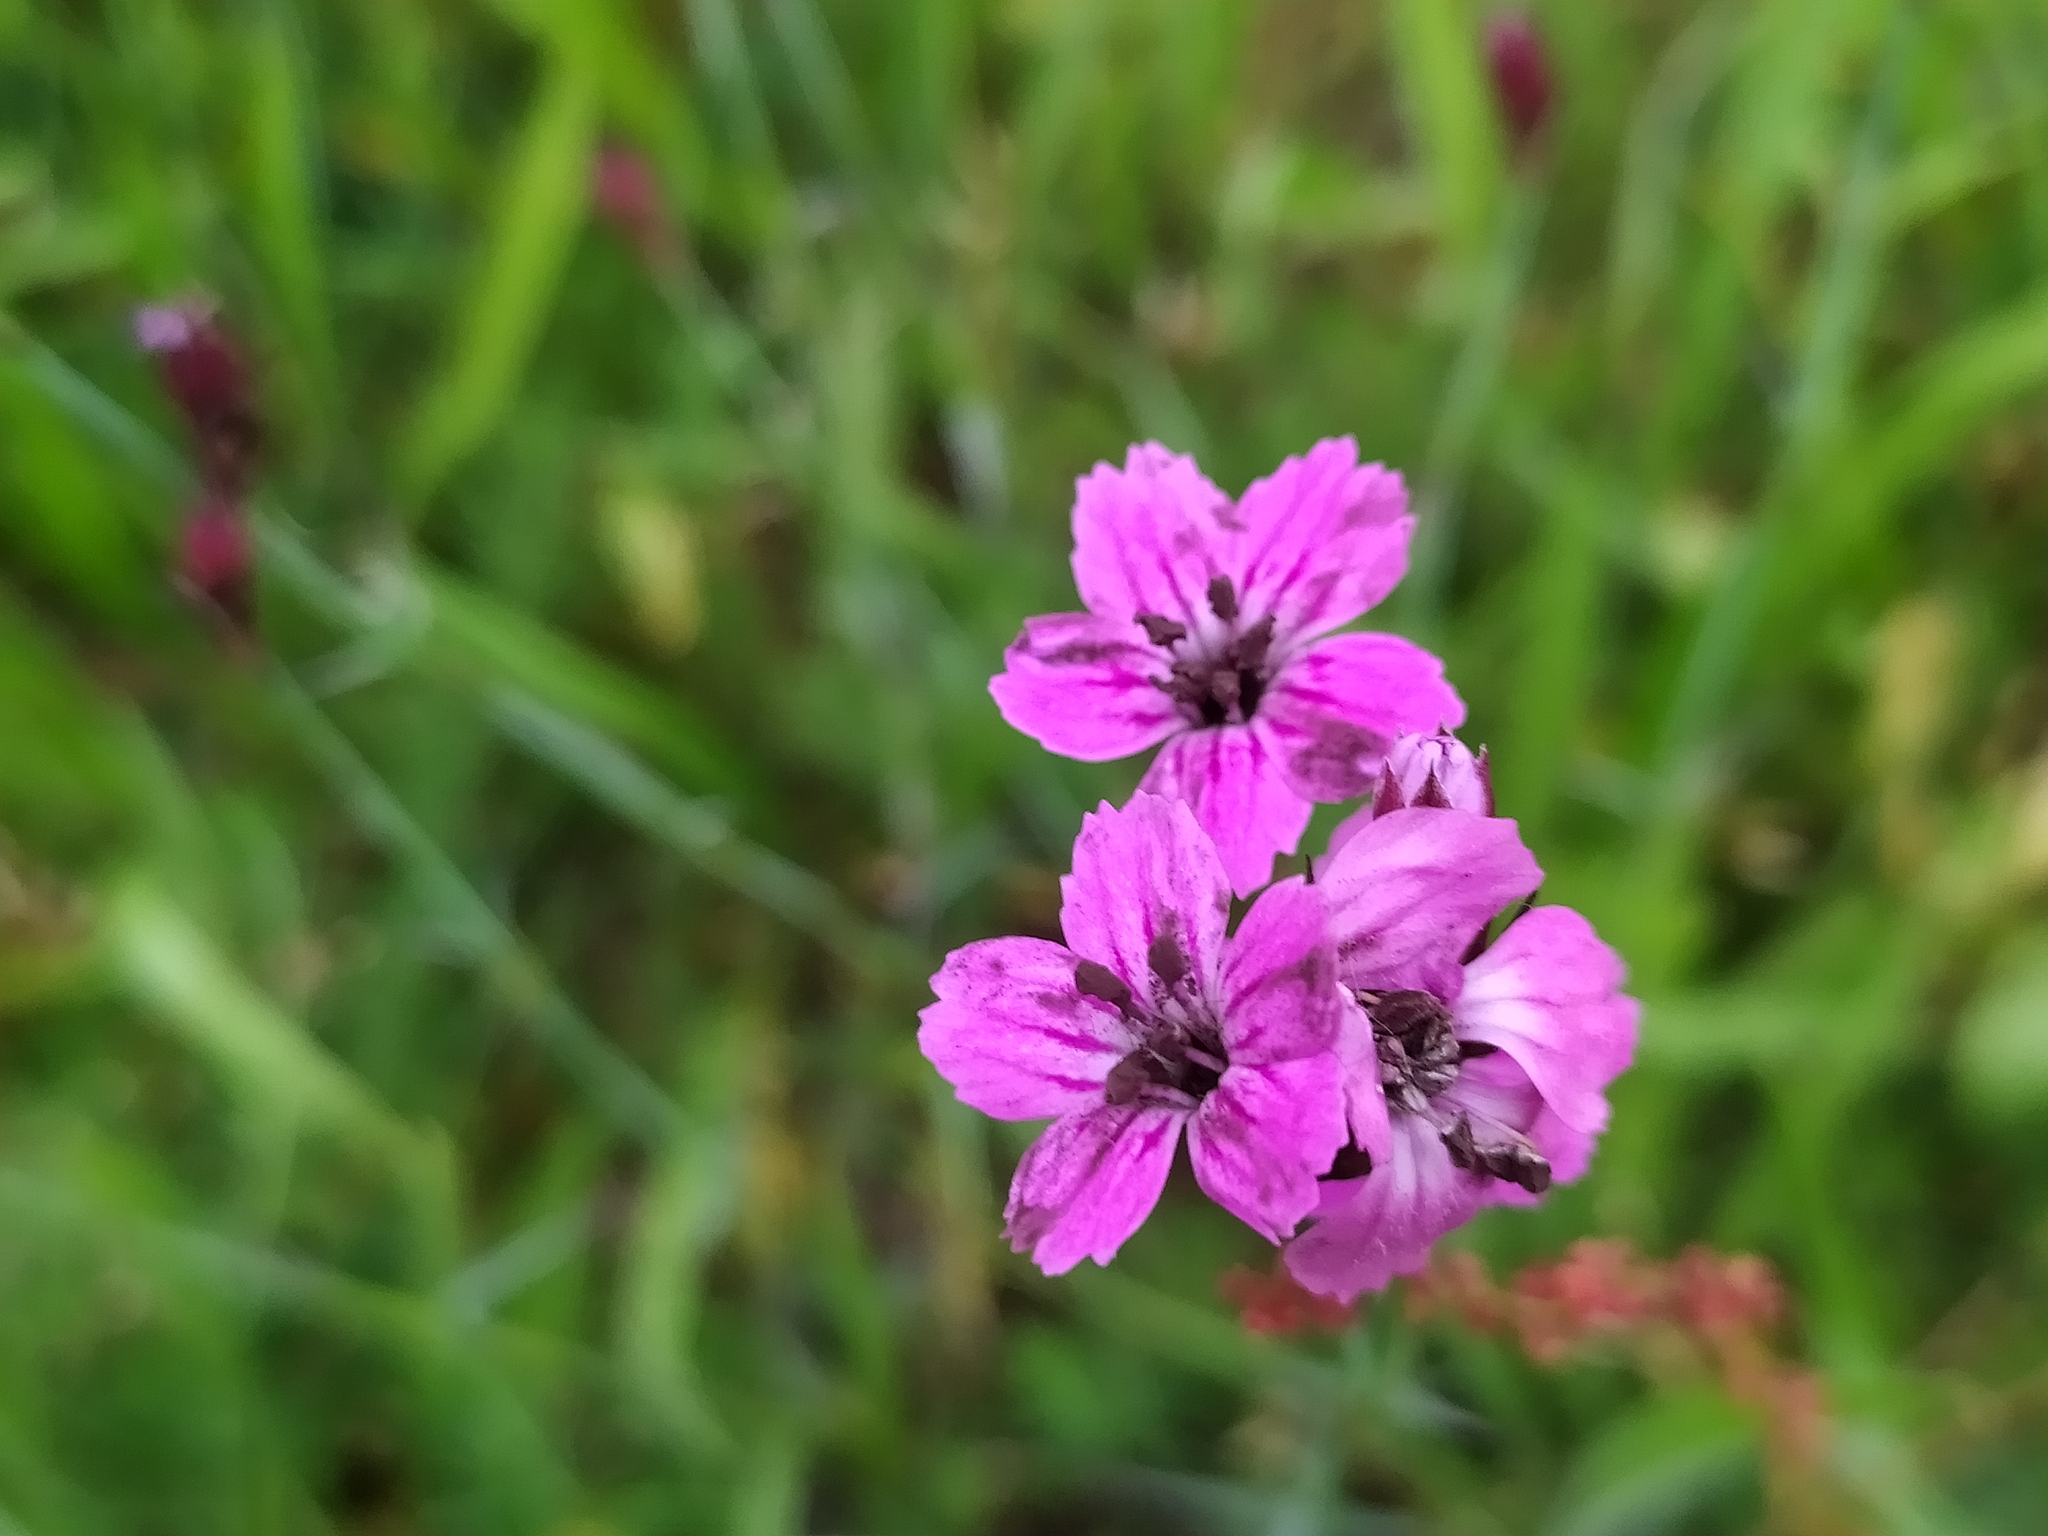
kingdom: Plantae
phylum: Tracheophyta
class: Magnoliopsida
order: Caryophyllales
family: Caryophyllaceae
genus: Dianthus
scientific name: Dianthus carthusianorum
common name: Carthusian pink
